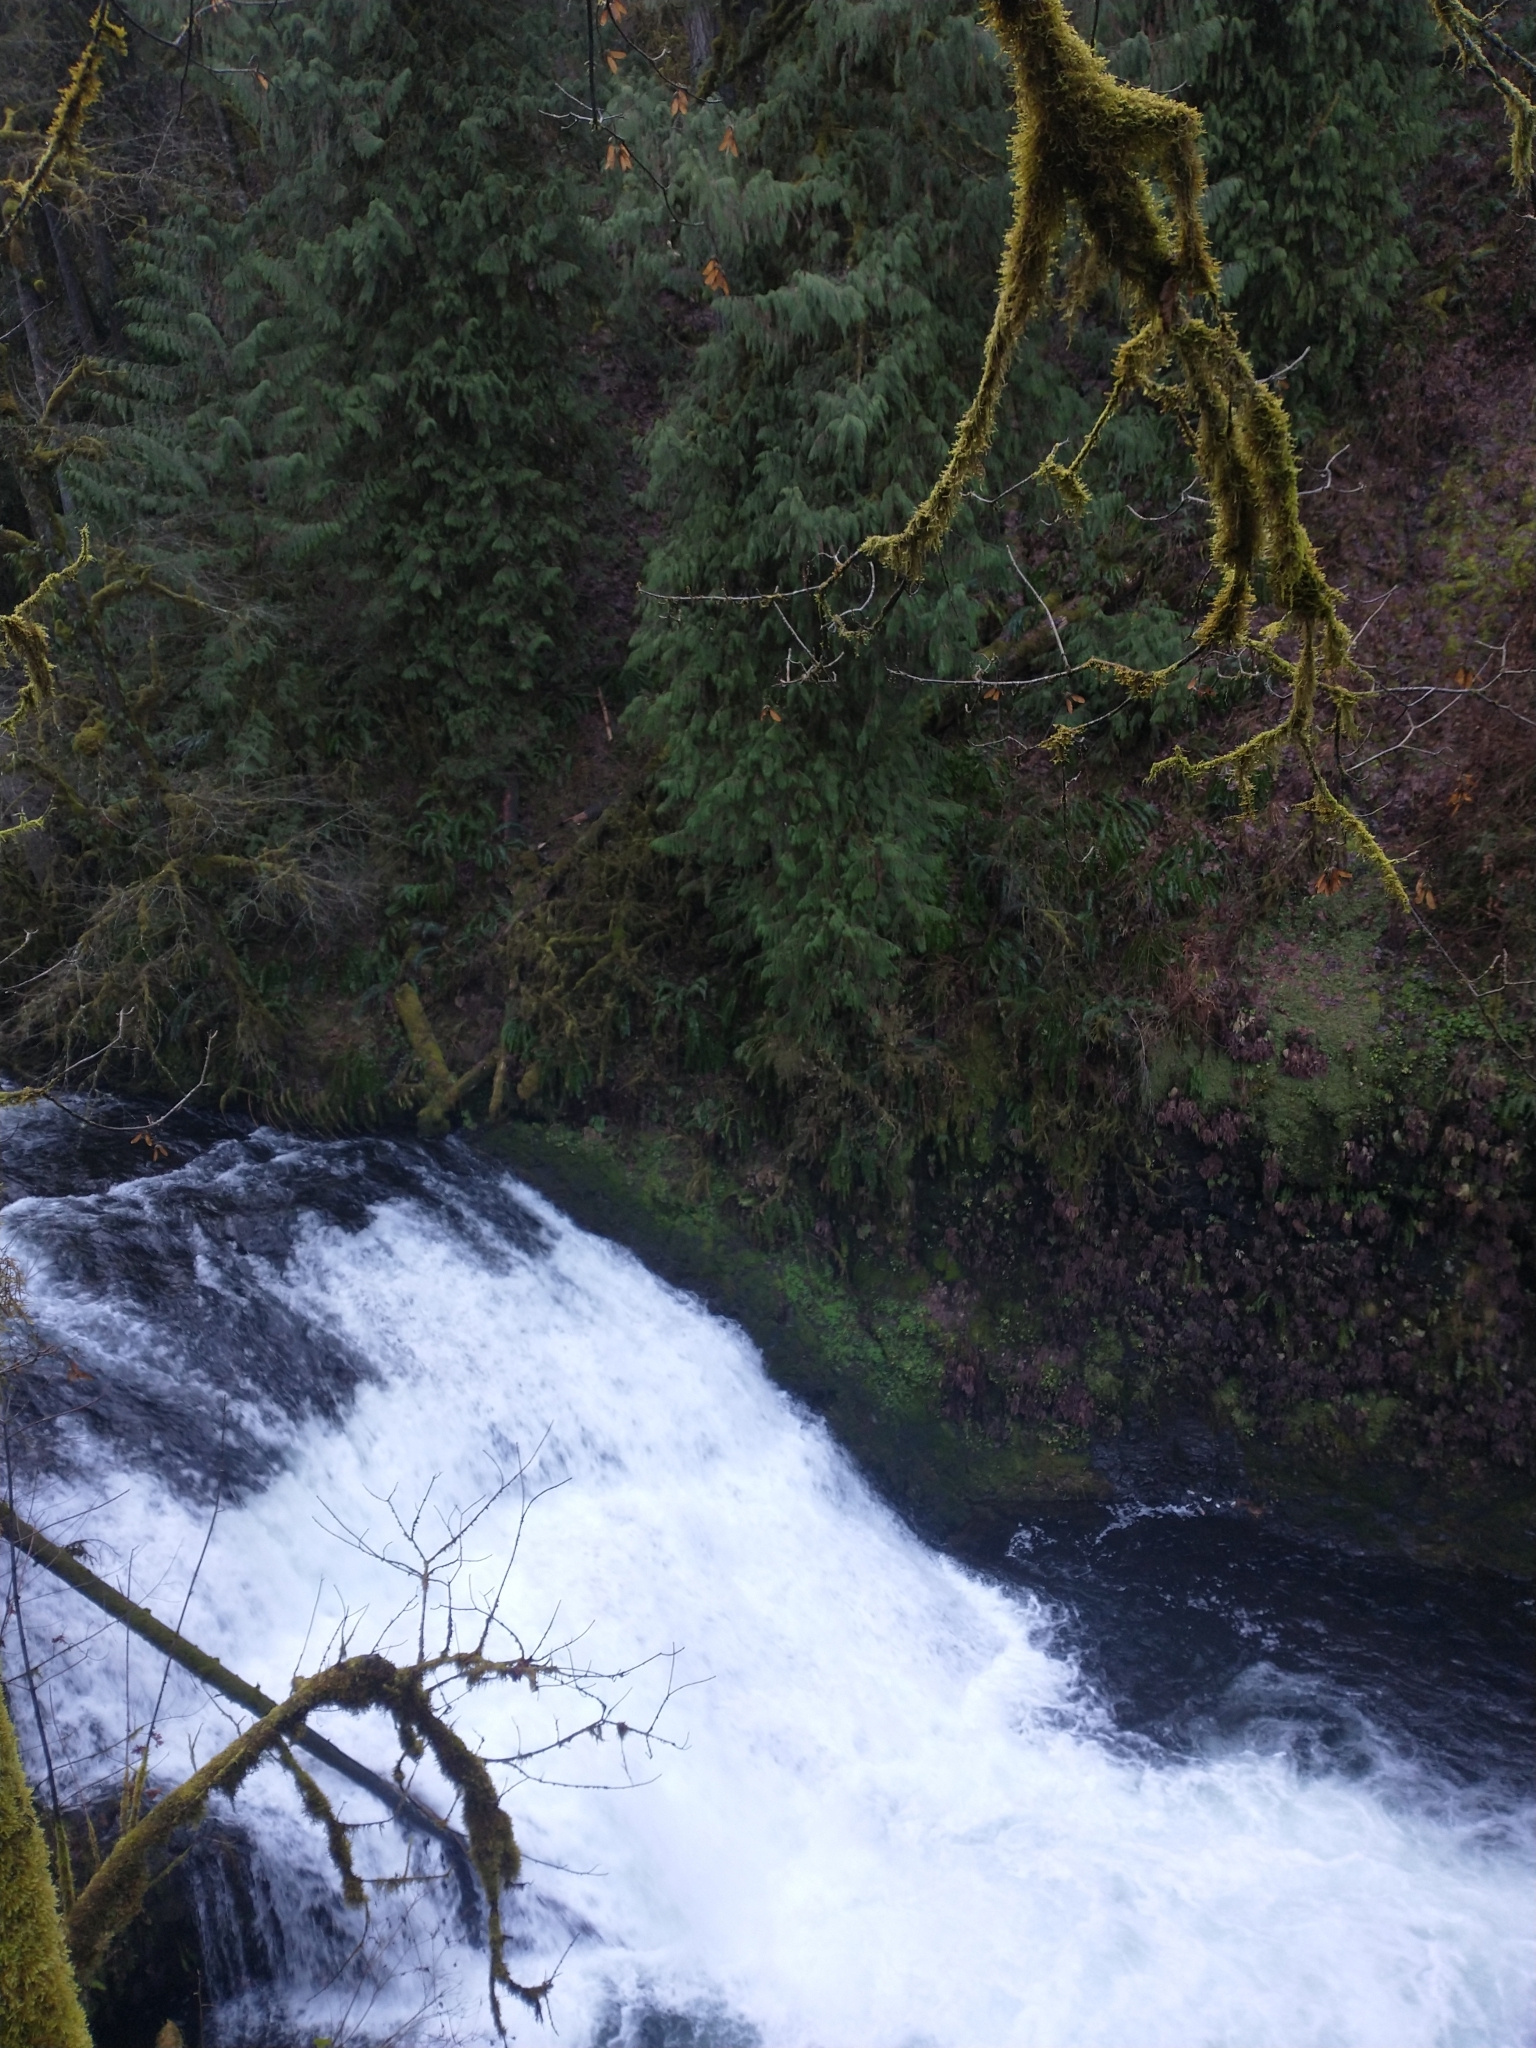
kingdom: Plantae
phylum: Tracheophyta
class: Pinopsida
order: Pinales
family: Cupressaceae
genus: Thuja
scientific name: Thuja plicata
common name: Western red-cedar
